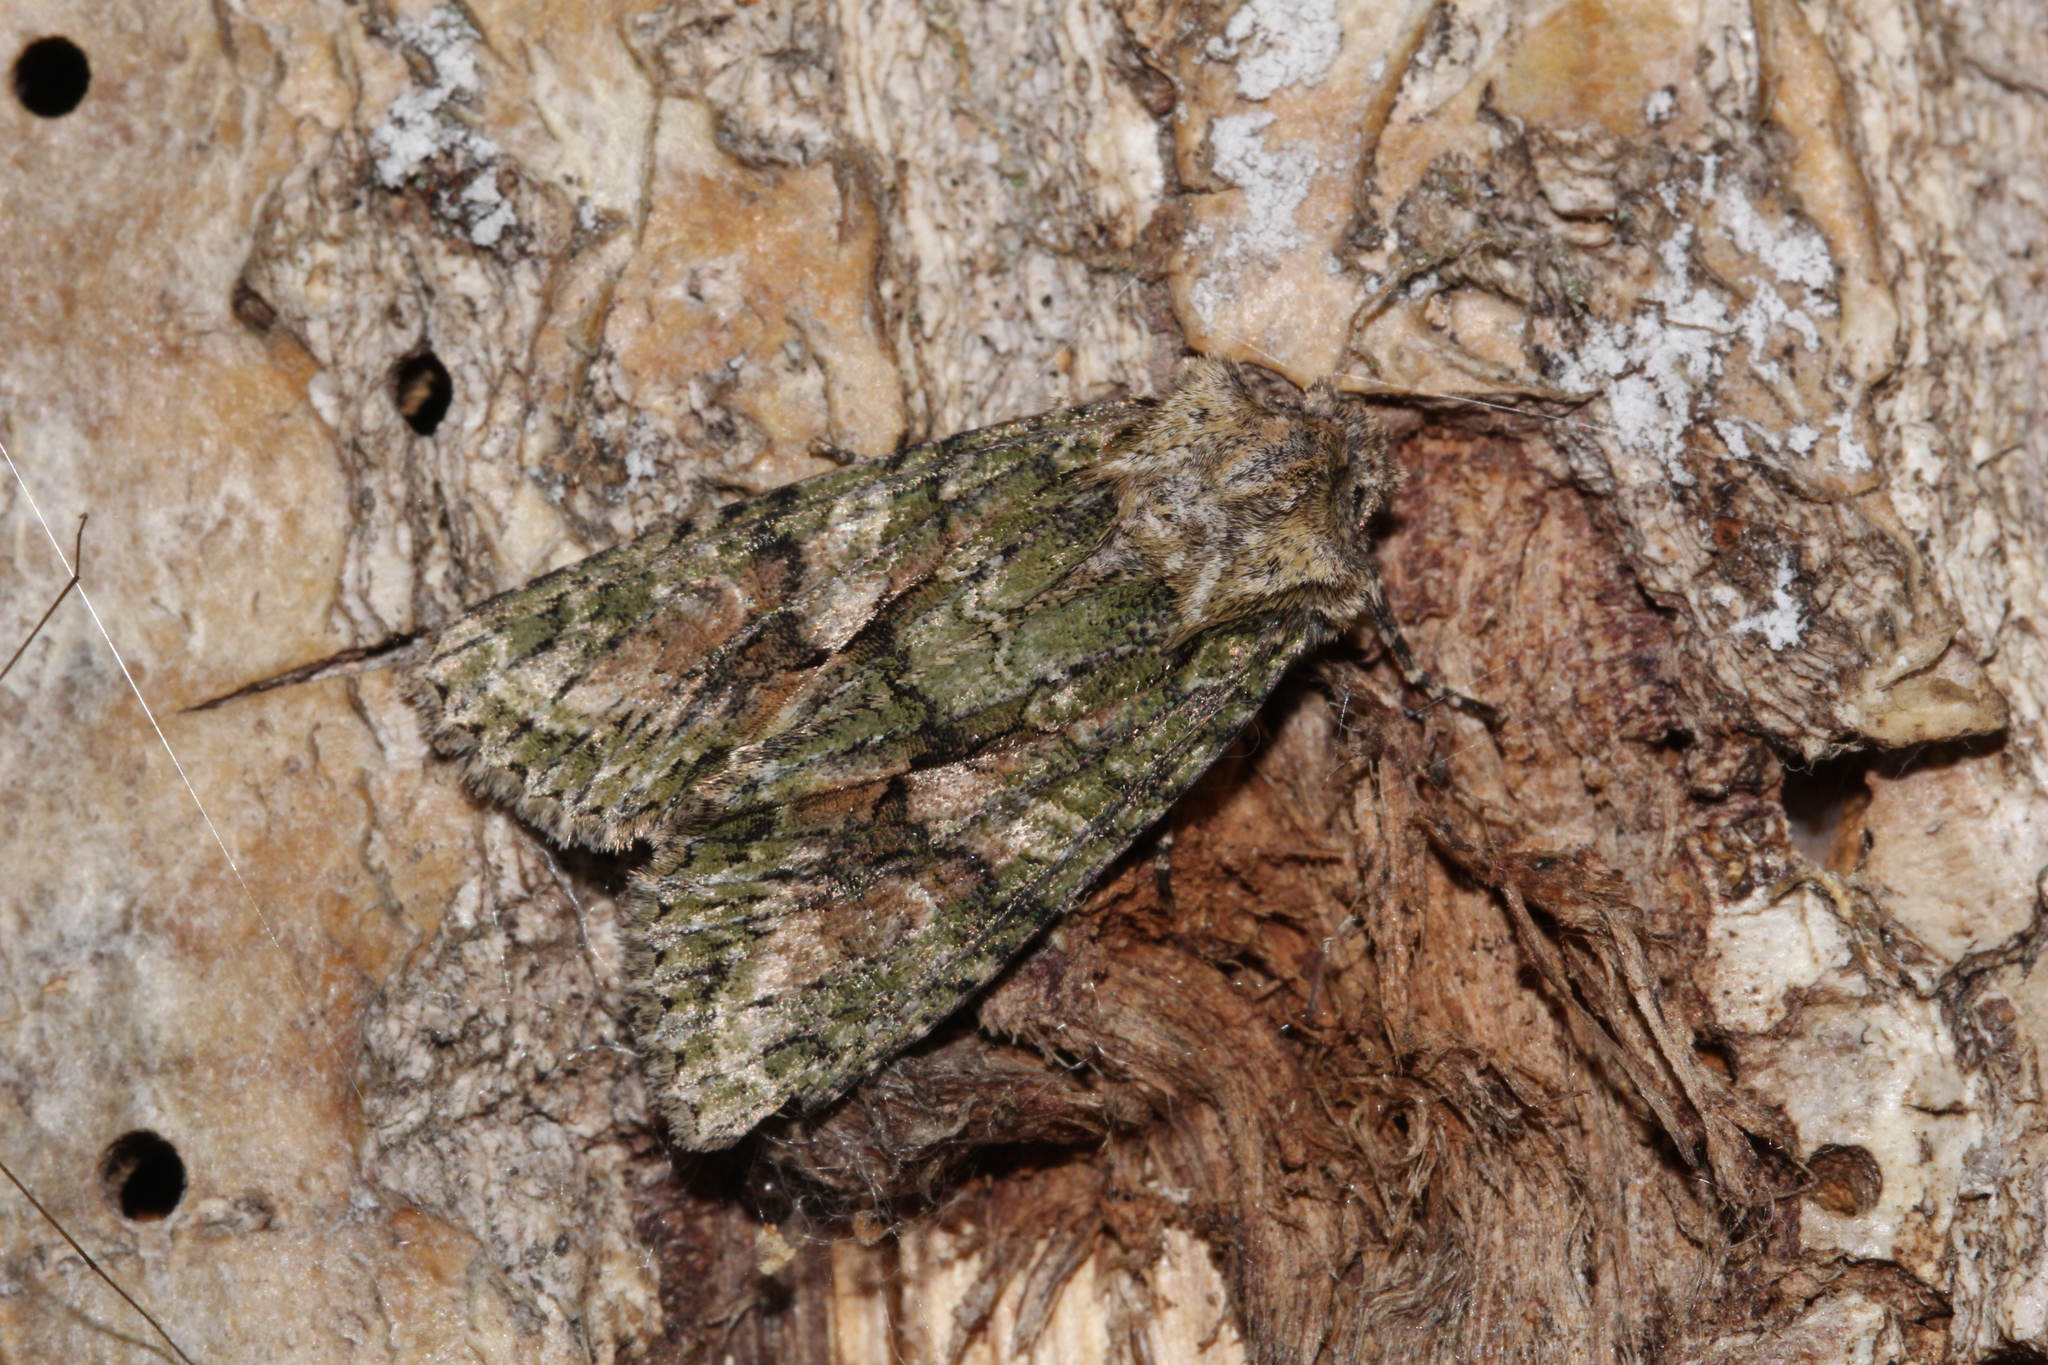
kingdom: Animalia
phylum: Arthropoda
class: Insecta
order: Lepidoptera
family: Noctuidae
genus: Dryobotodes
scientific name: Dryobotodes eremita
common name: Brindled green
